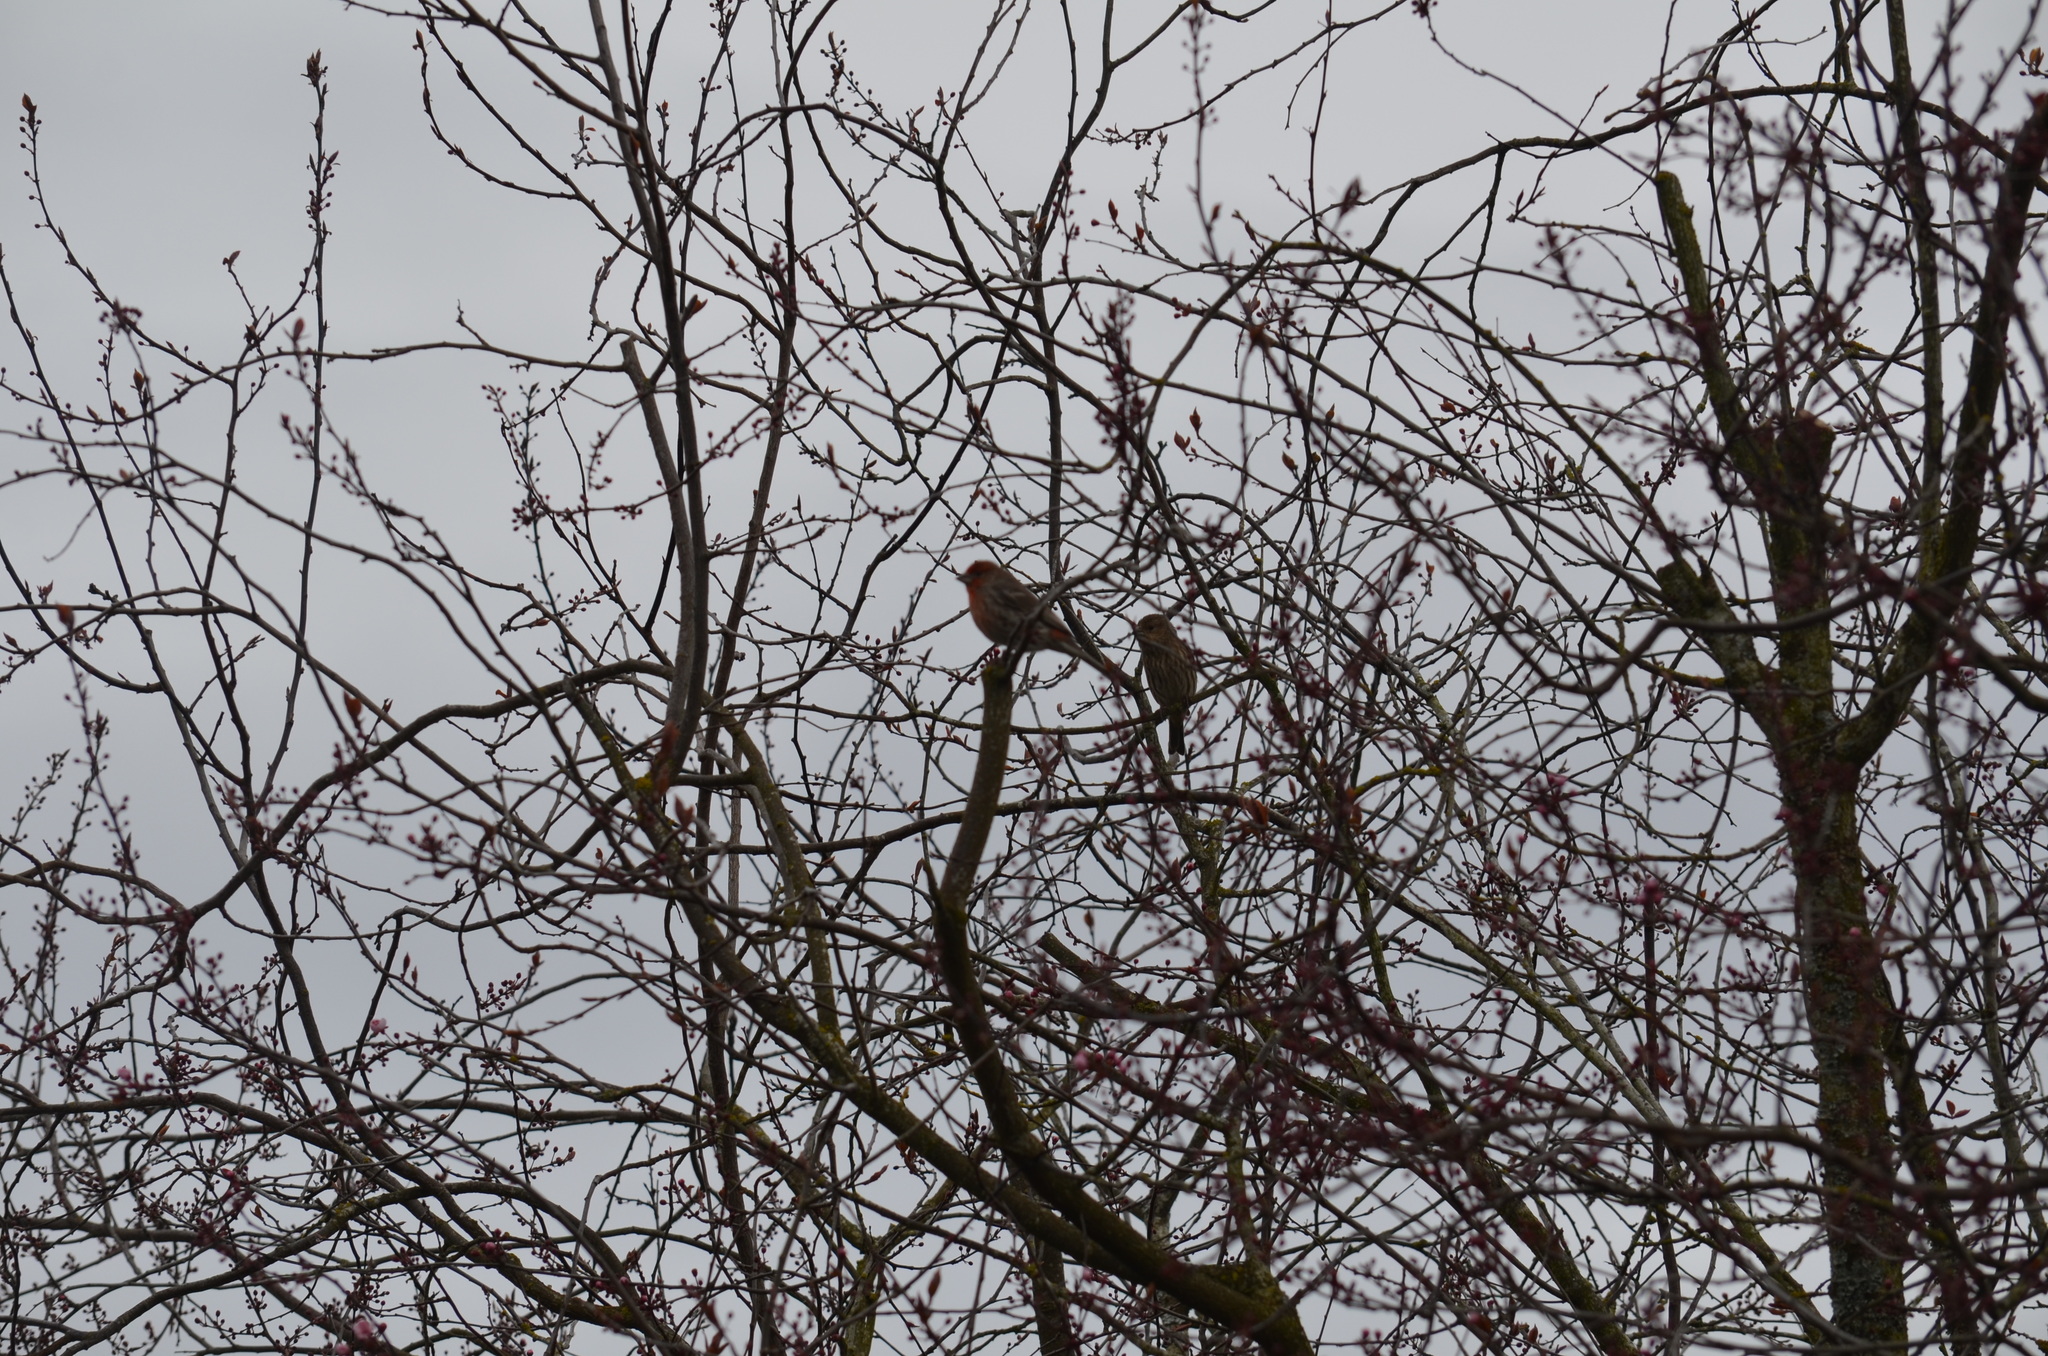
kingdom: Animalia
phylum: Chordata
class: Aves
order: Passeriformes
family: Fringillidae
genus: Haemorhous
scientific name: Haemorhous mexicanus
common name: House finch
